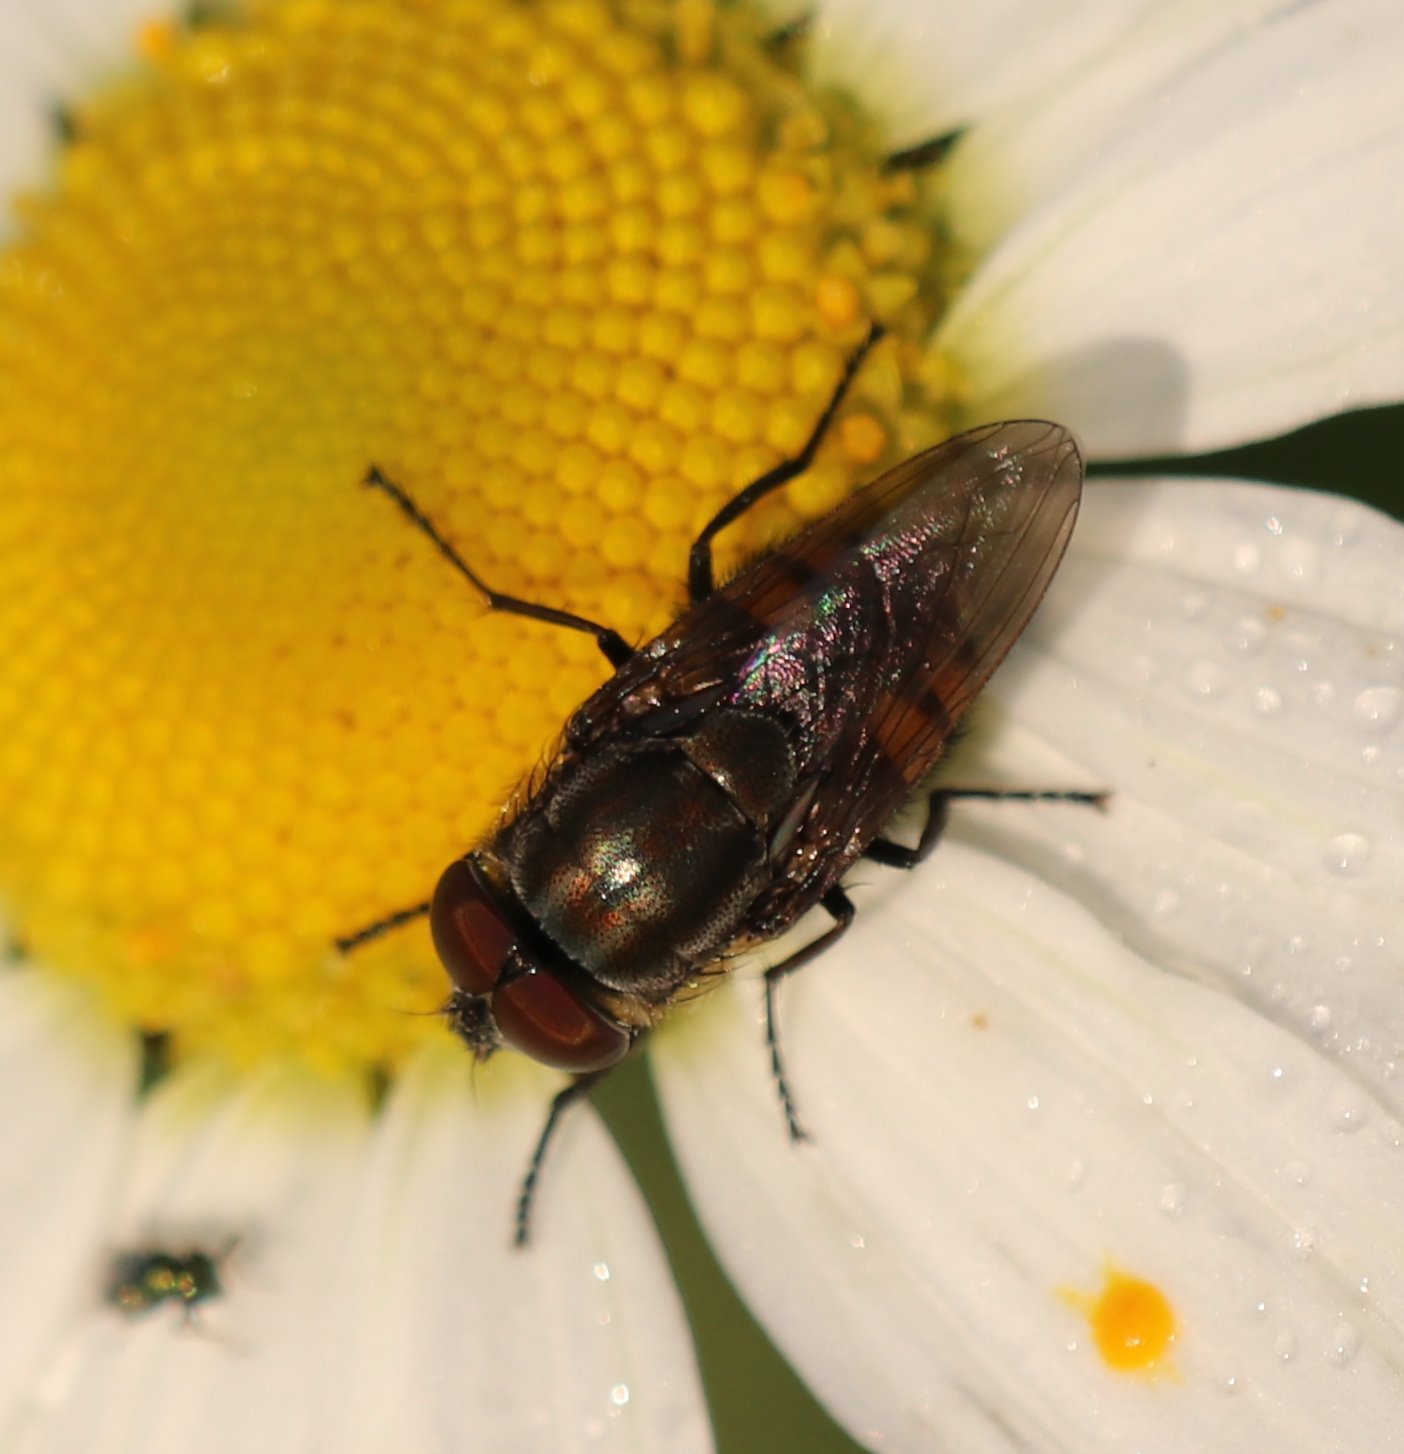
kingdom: Animalia
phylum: Arthropoda
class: Insecta
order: Diptera
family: Calliphoridae
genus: Stomorhina
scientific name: Stomorhina lunata
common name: Locust blowfly
